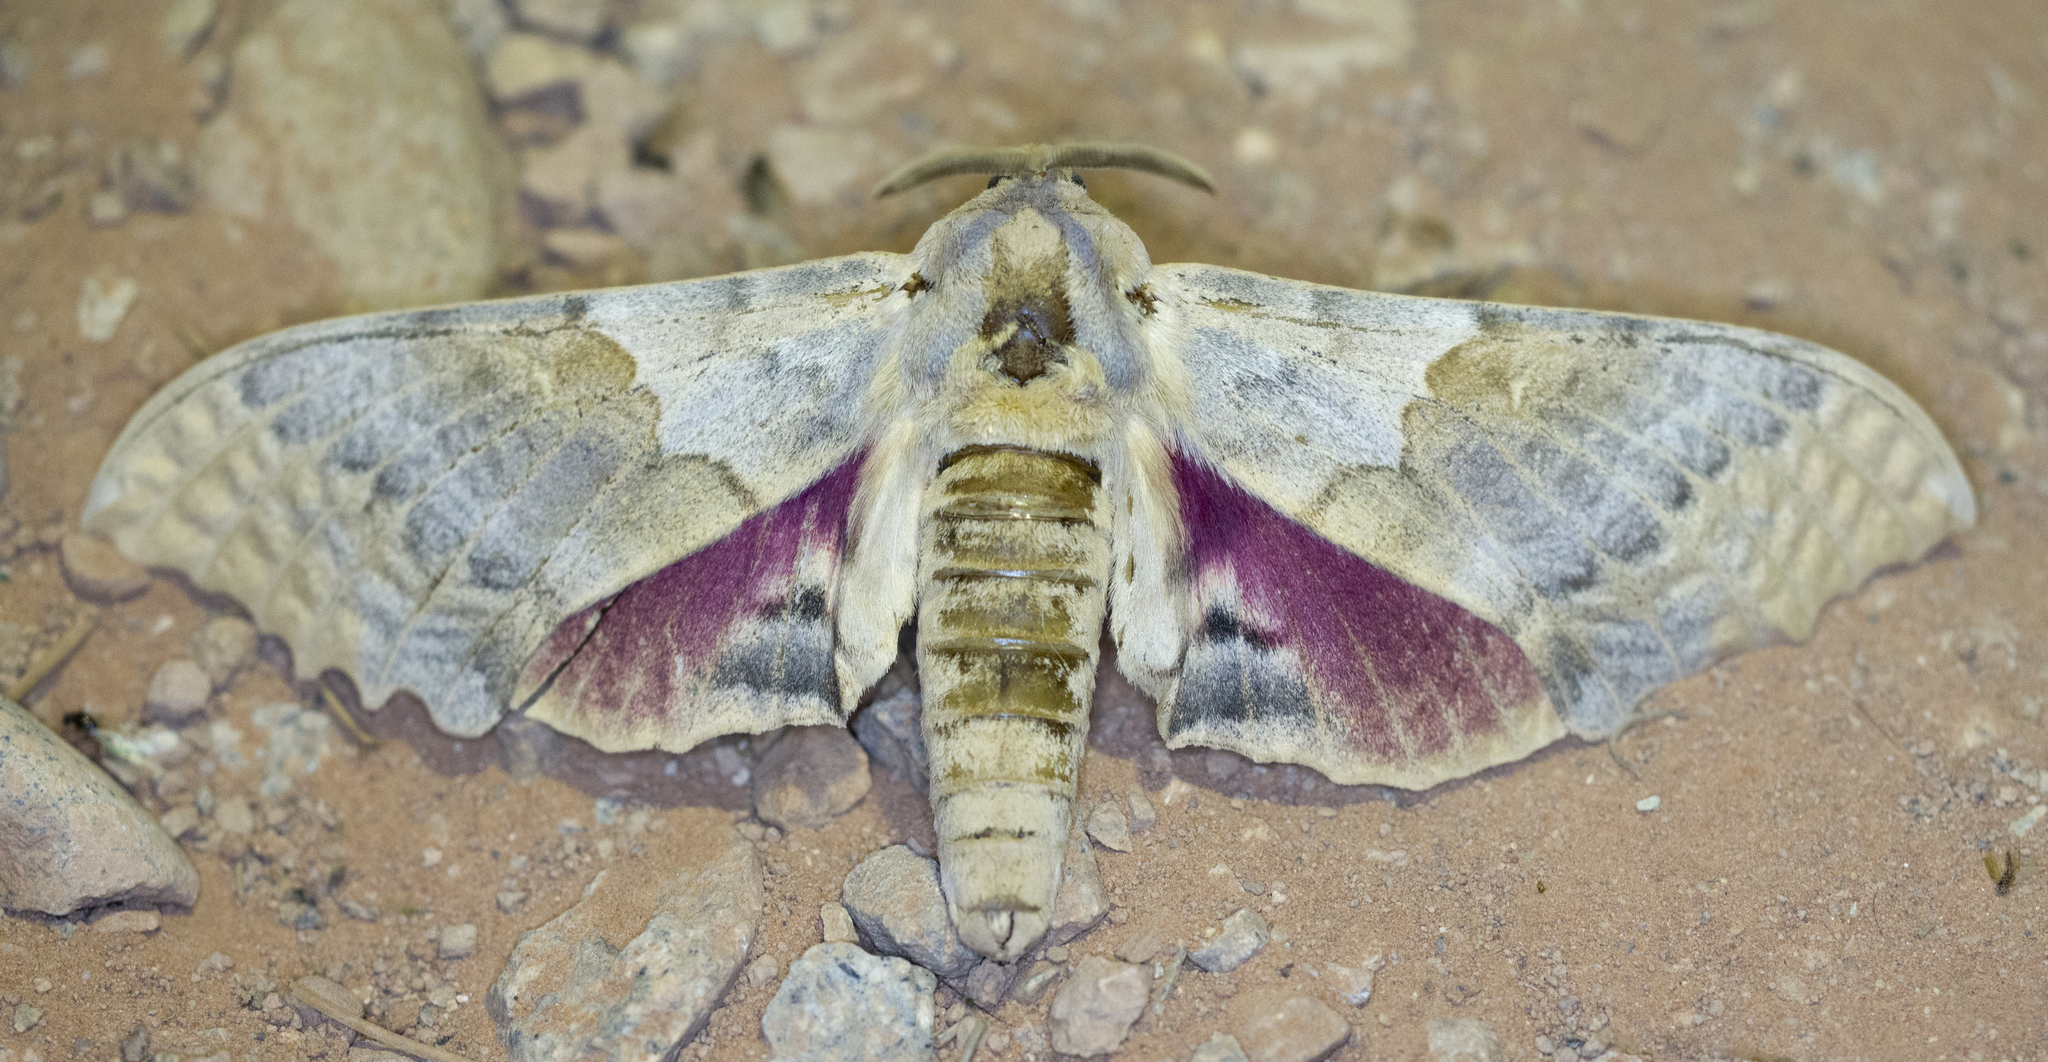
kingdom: Animalia
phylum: Arthropoda
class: Insecta
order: Lepidoptera
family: Sphingidae
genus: Pachysphinx
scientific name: Pachysphinx occidentalis
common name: Western poplar sphinx
